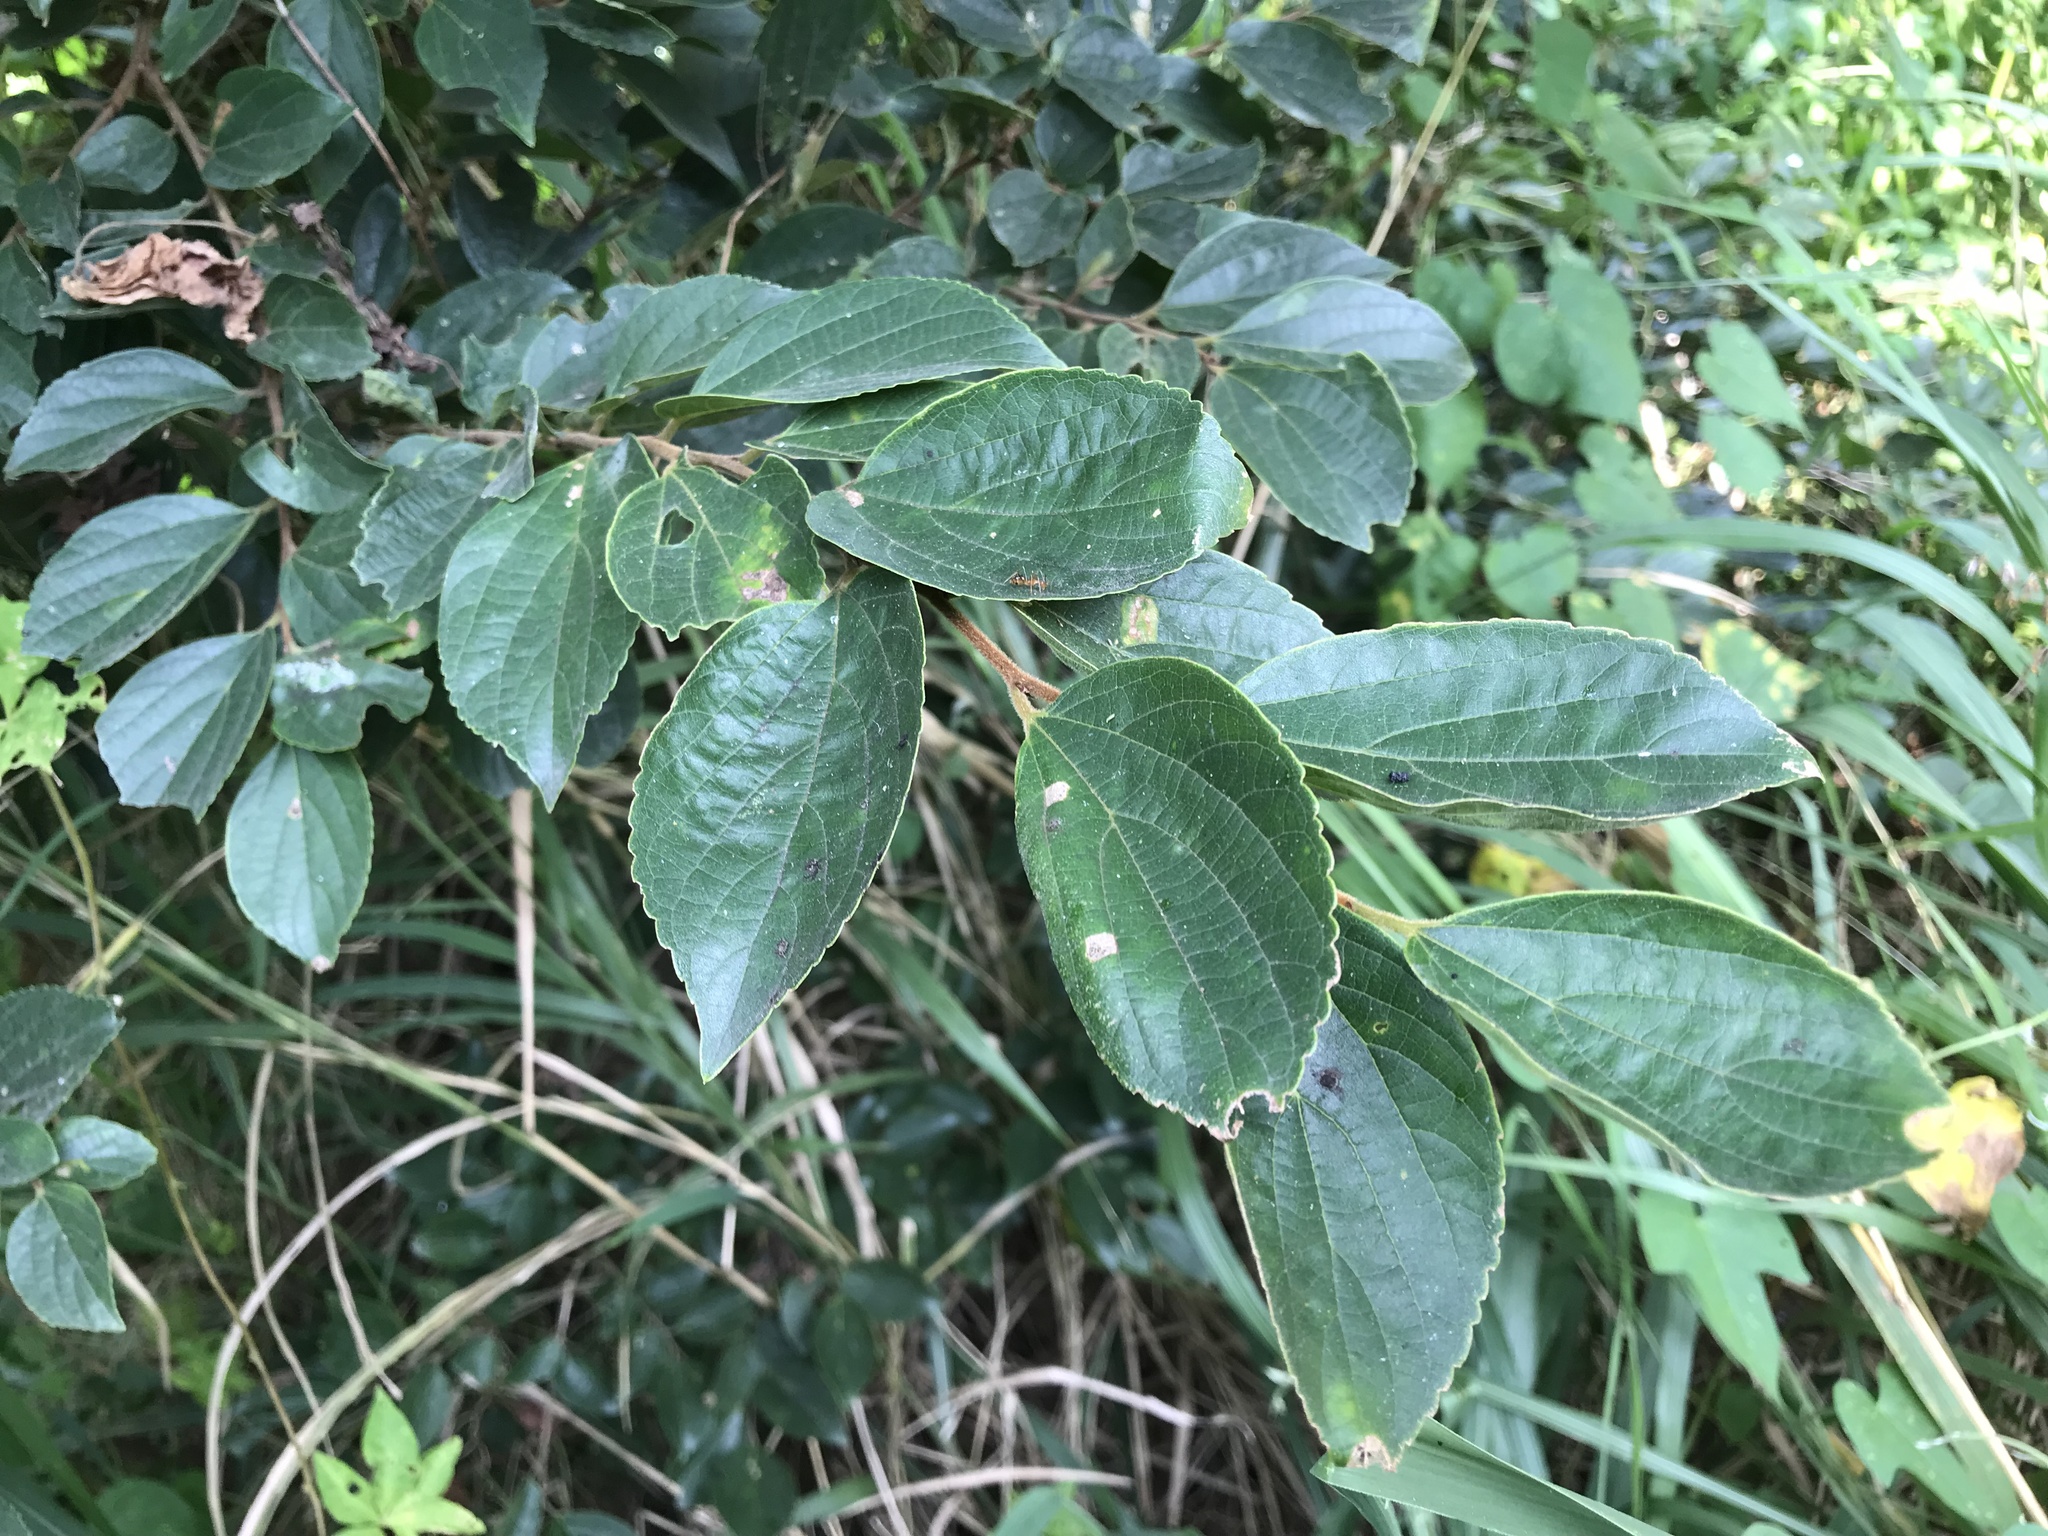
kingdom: Plantae
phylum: Tracheophyta
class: Magnoliopsida
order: Rosales
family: Cannabaceae
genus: Celtis
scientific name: Celtis sinensis
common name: Chinese hackberry
